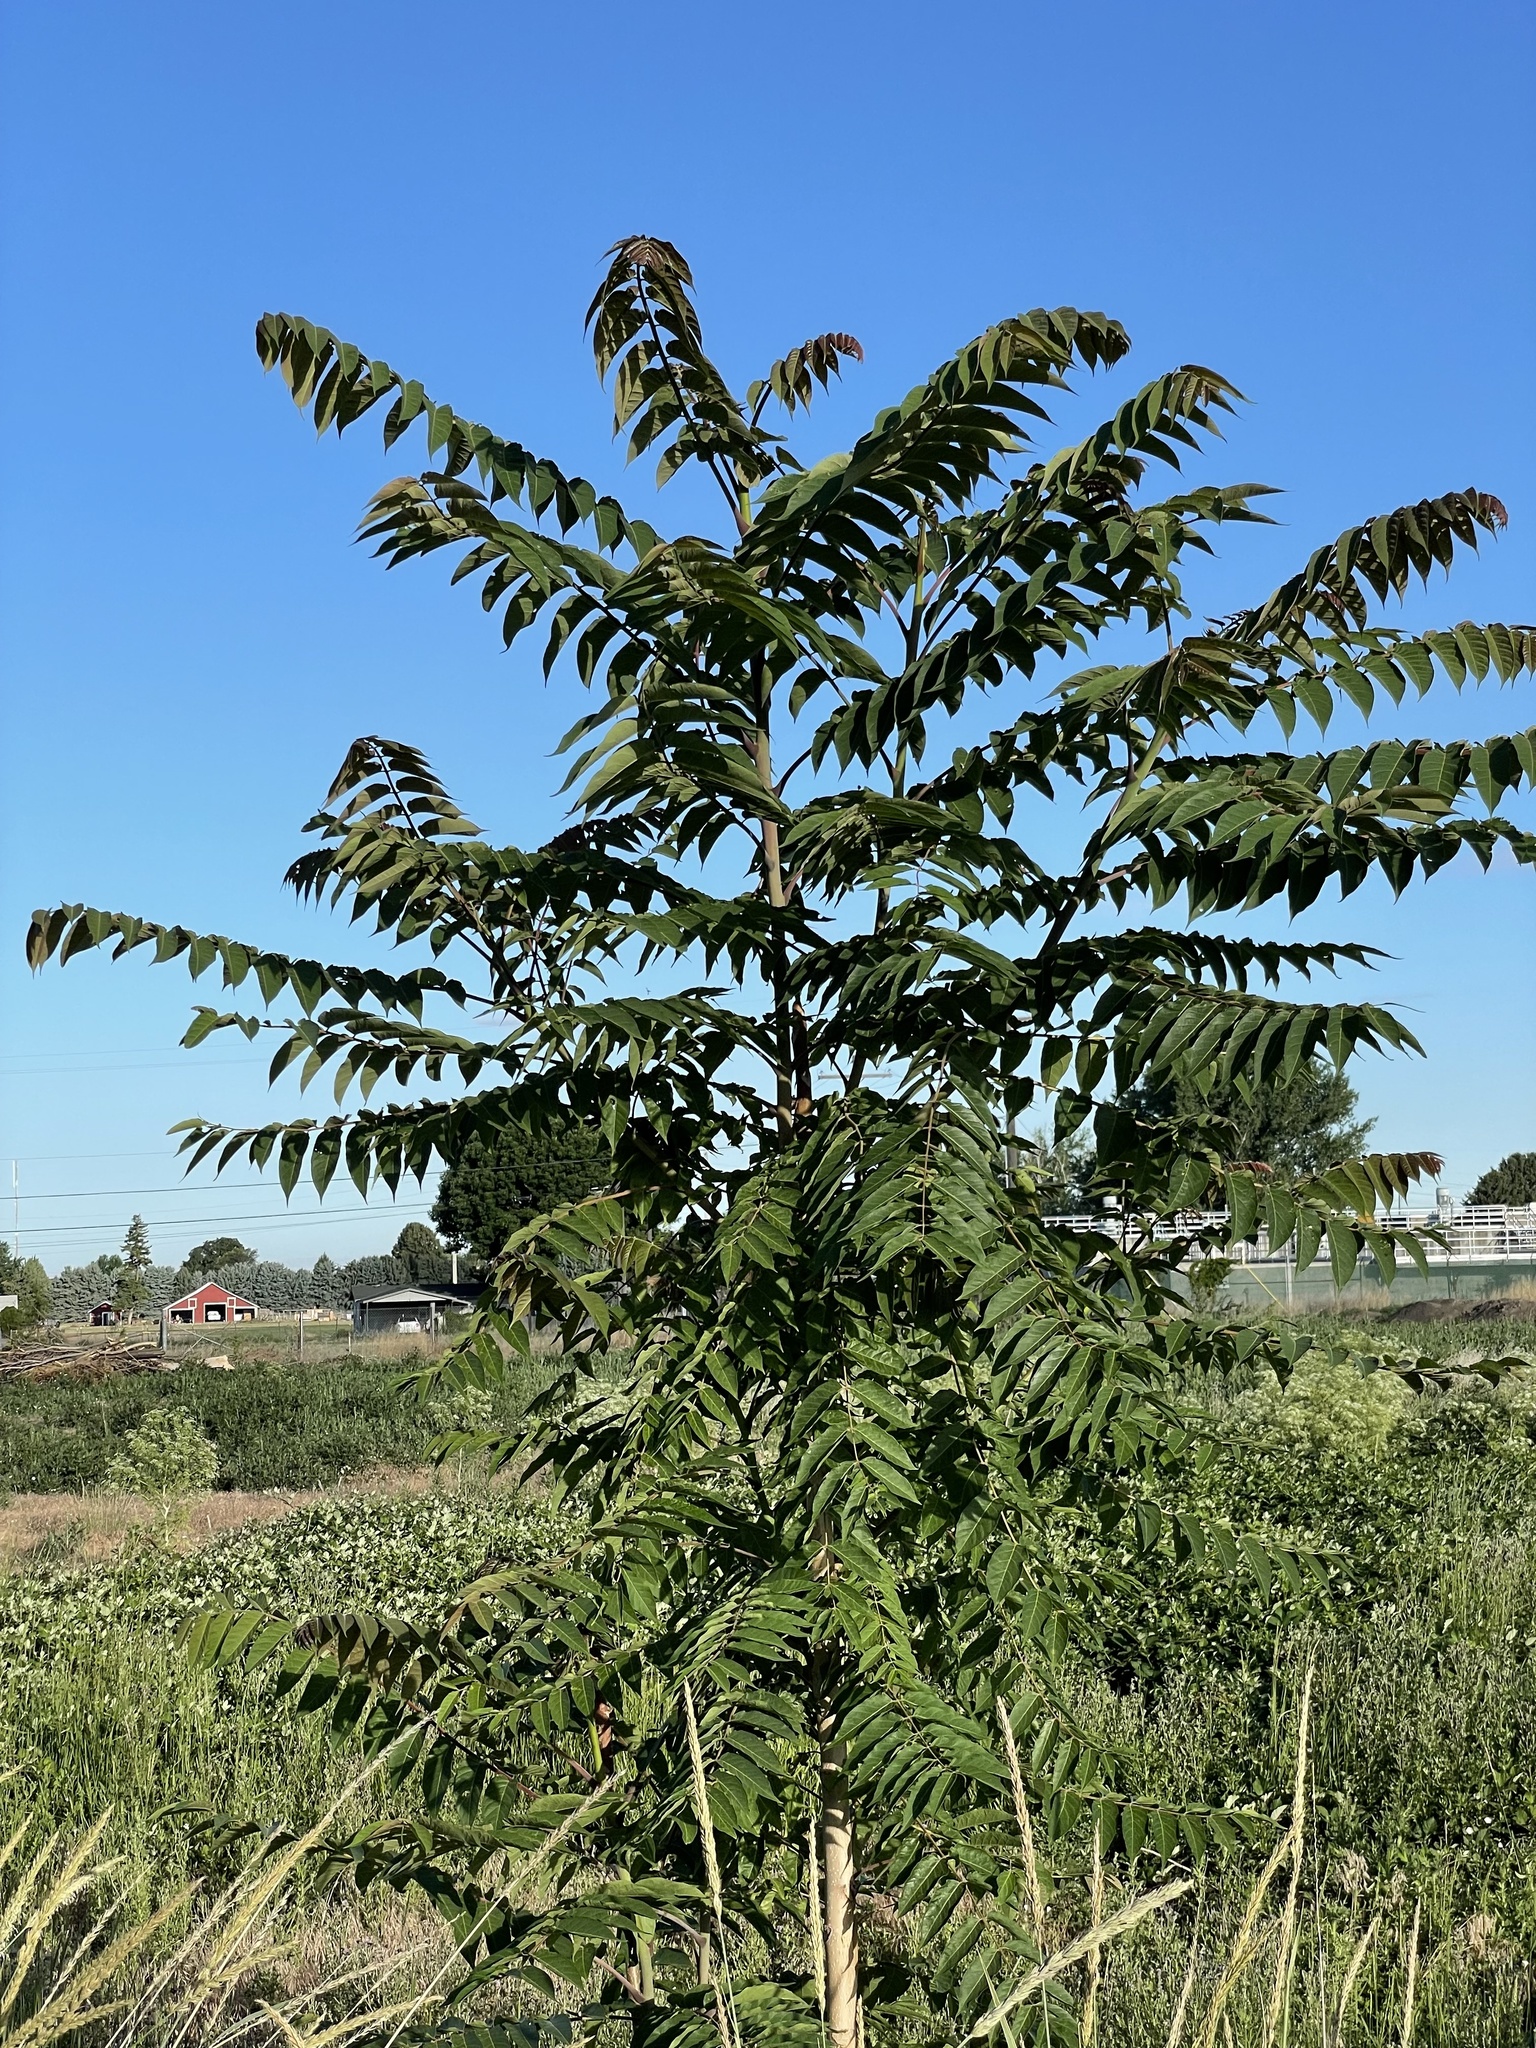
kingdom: Plantae
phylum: Tracheophyta
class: Magnoliopsida
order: Sapindales
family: Simaroubaceae
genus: Ailanthus
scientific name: Ailanthus altissima
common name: Tree-of-heaven
